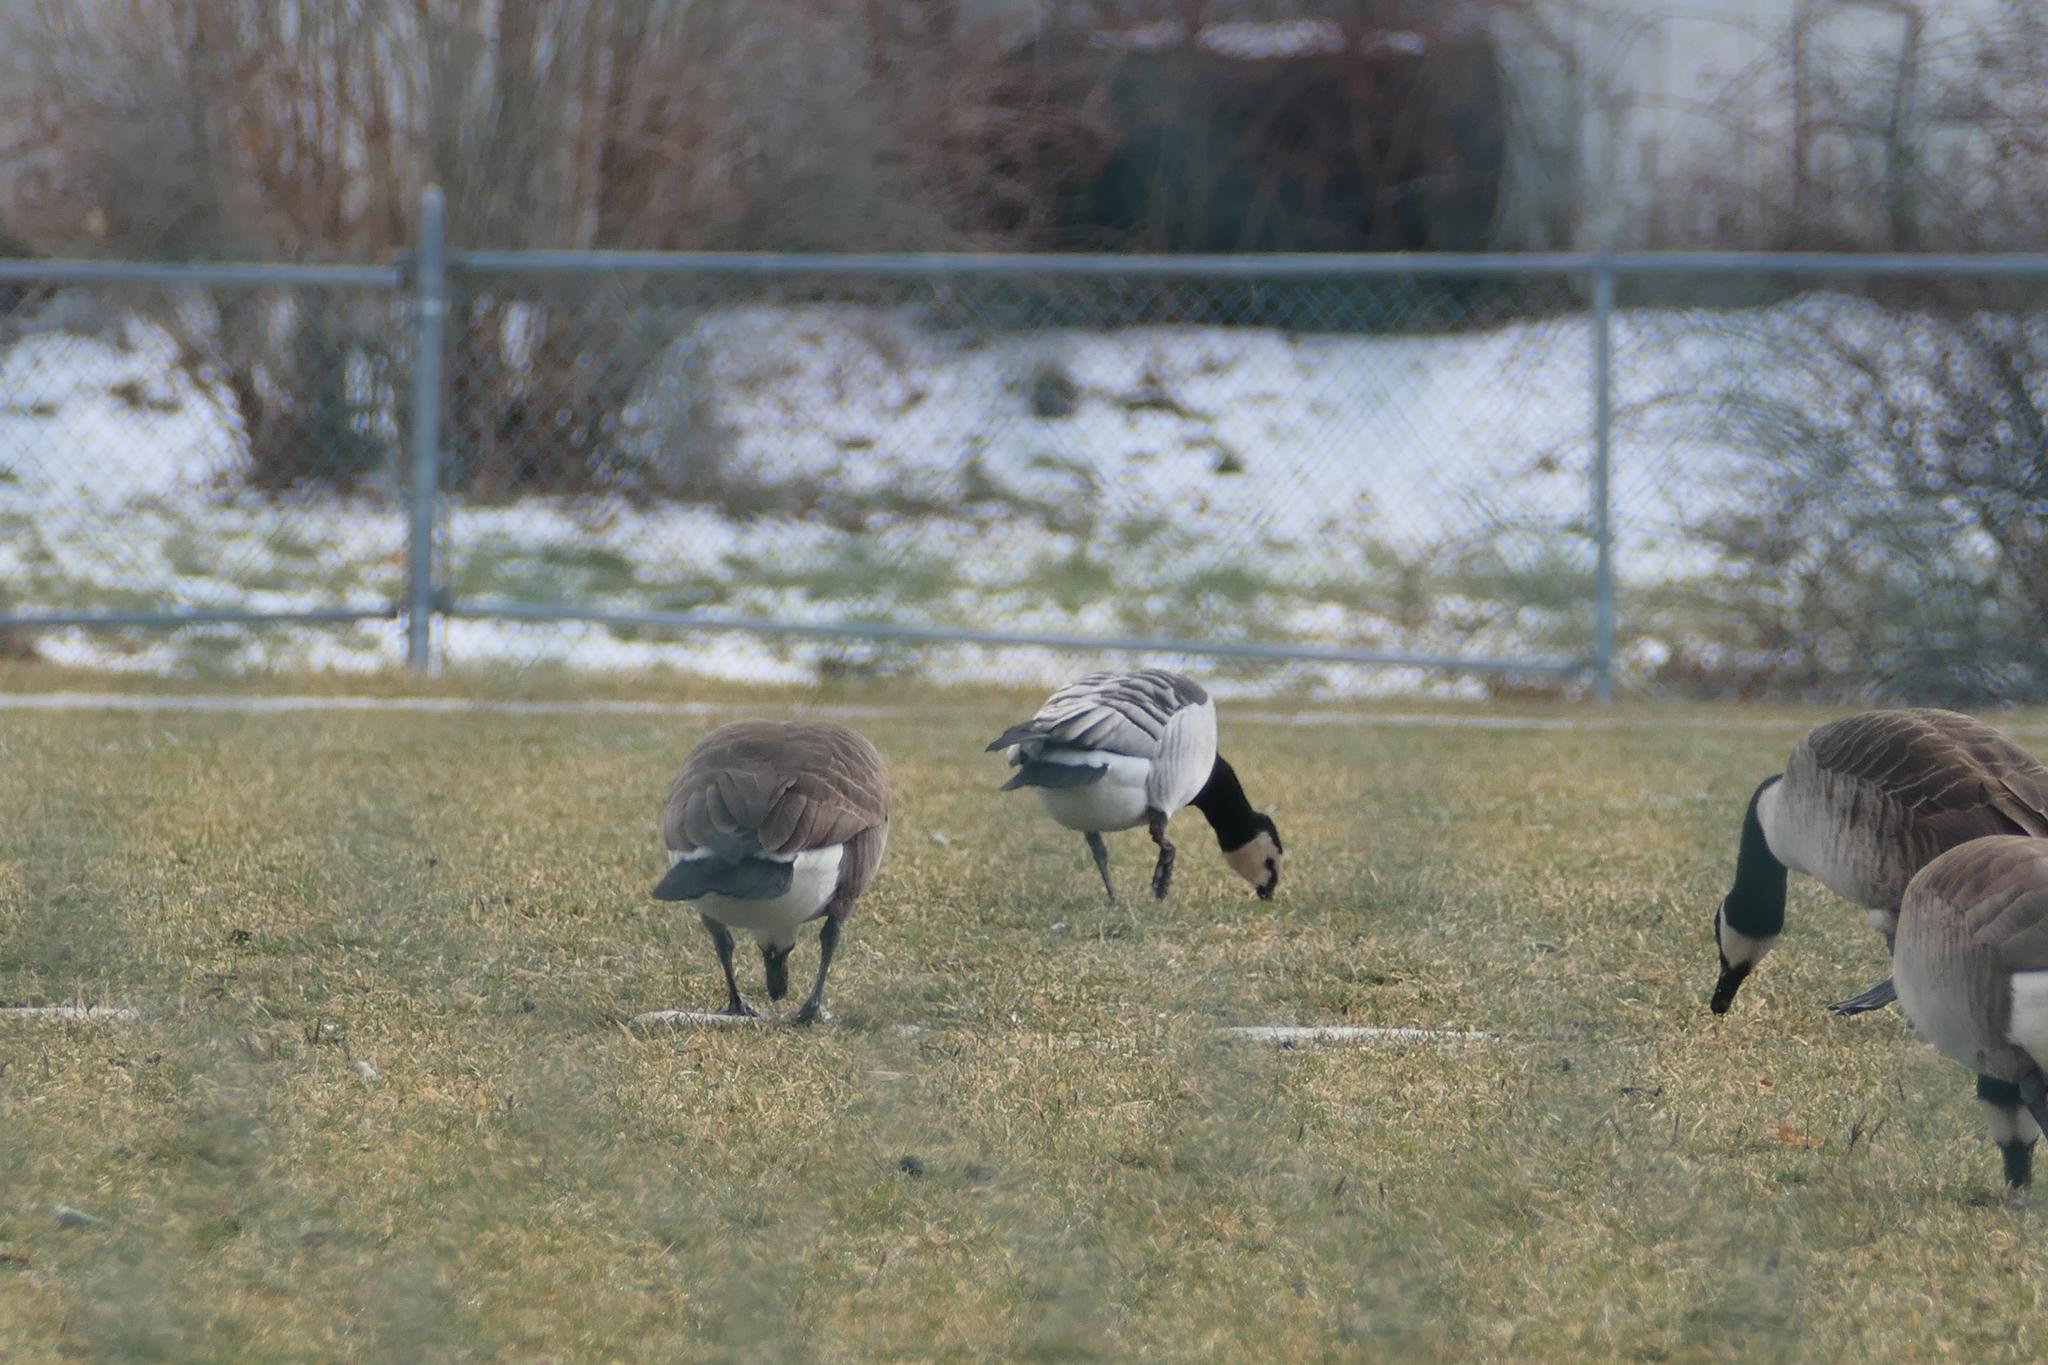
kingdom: Animalia
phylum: Chordata
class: Aves
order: Anseriformes
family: Anatidae
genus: Branta
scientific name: Branta leucopsis
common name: Barnacle goose
